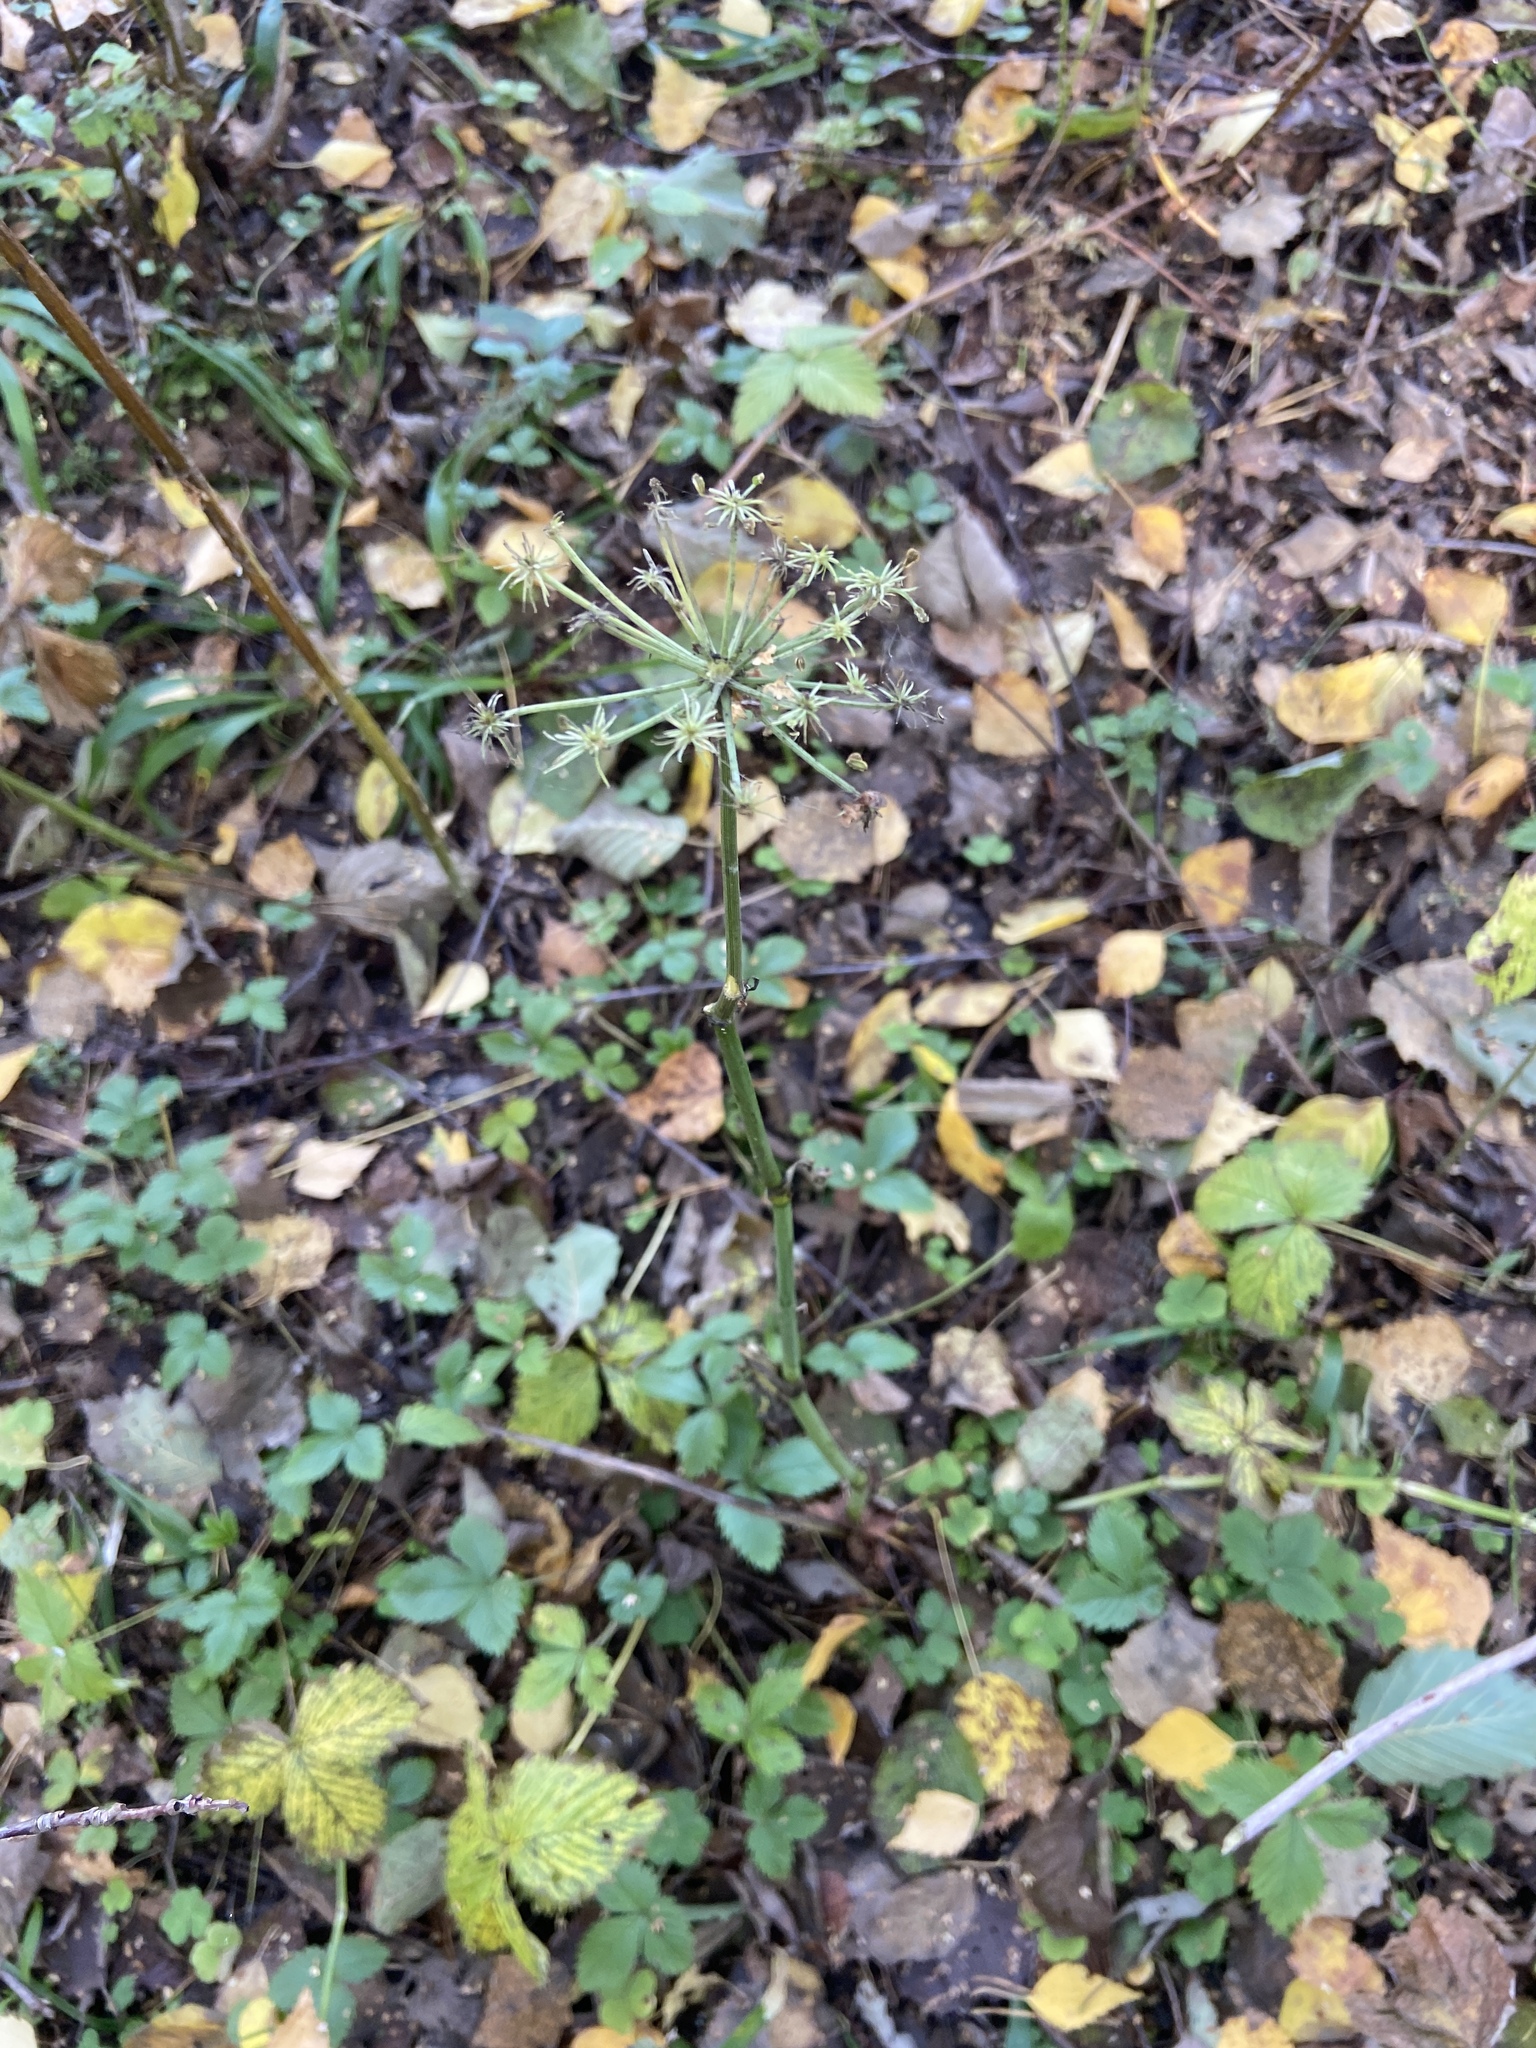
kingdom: Plantae
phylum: Tracheophyta
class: Magnoliopsida
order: Apiales
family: Apiaceae
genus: Angelica
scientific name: Angelica sylvestris
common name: Wild angelica
